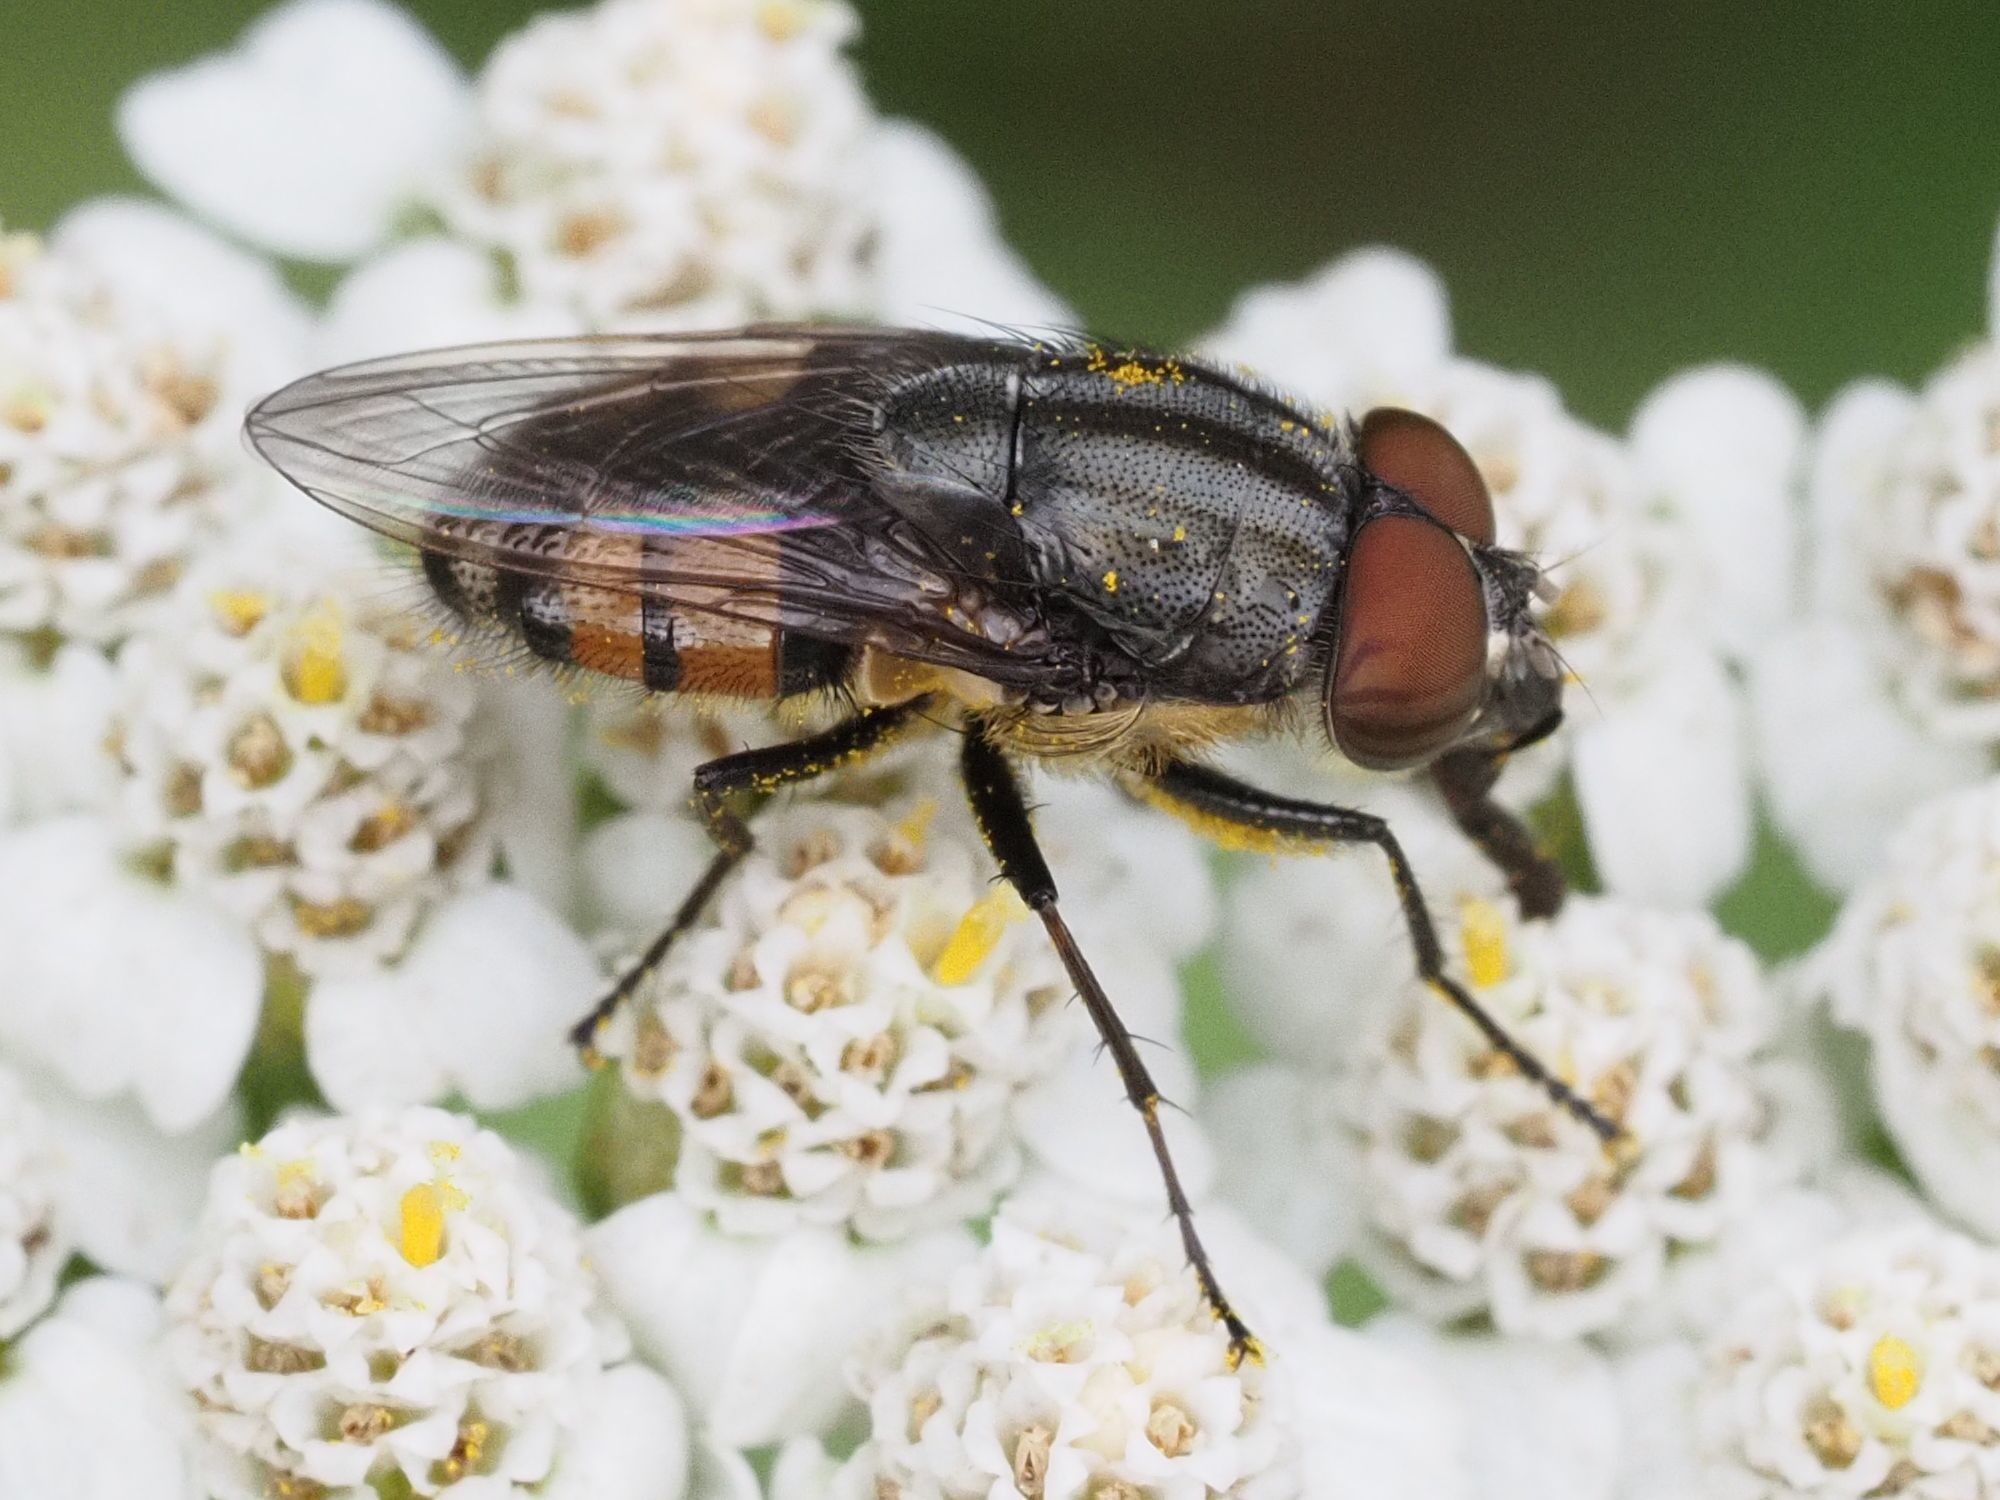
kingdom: Animalia
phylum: Arthropoda
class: Insecta
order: Diptera
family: Calliphoridae
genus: Stomorhina
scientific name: Stomorhina lunata
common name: Locust blowfly
